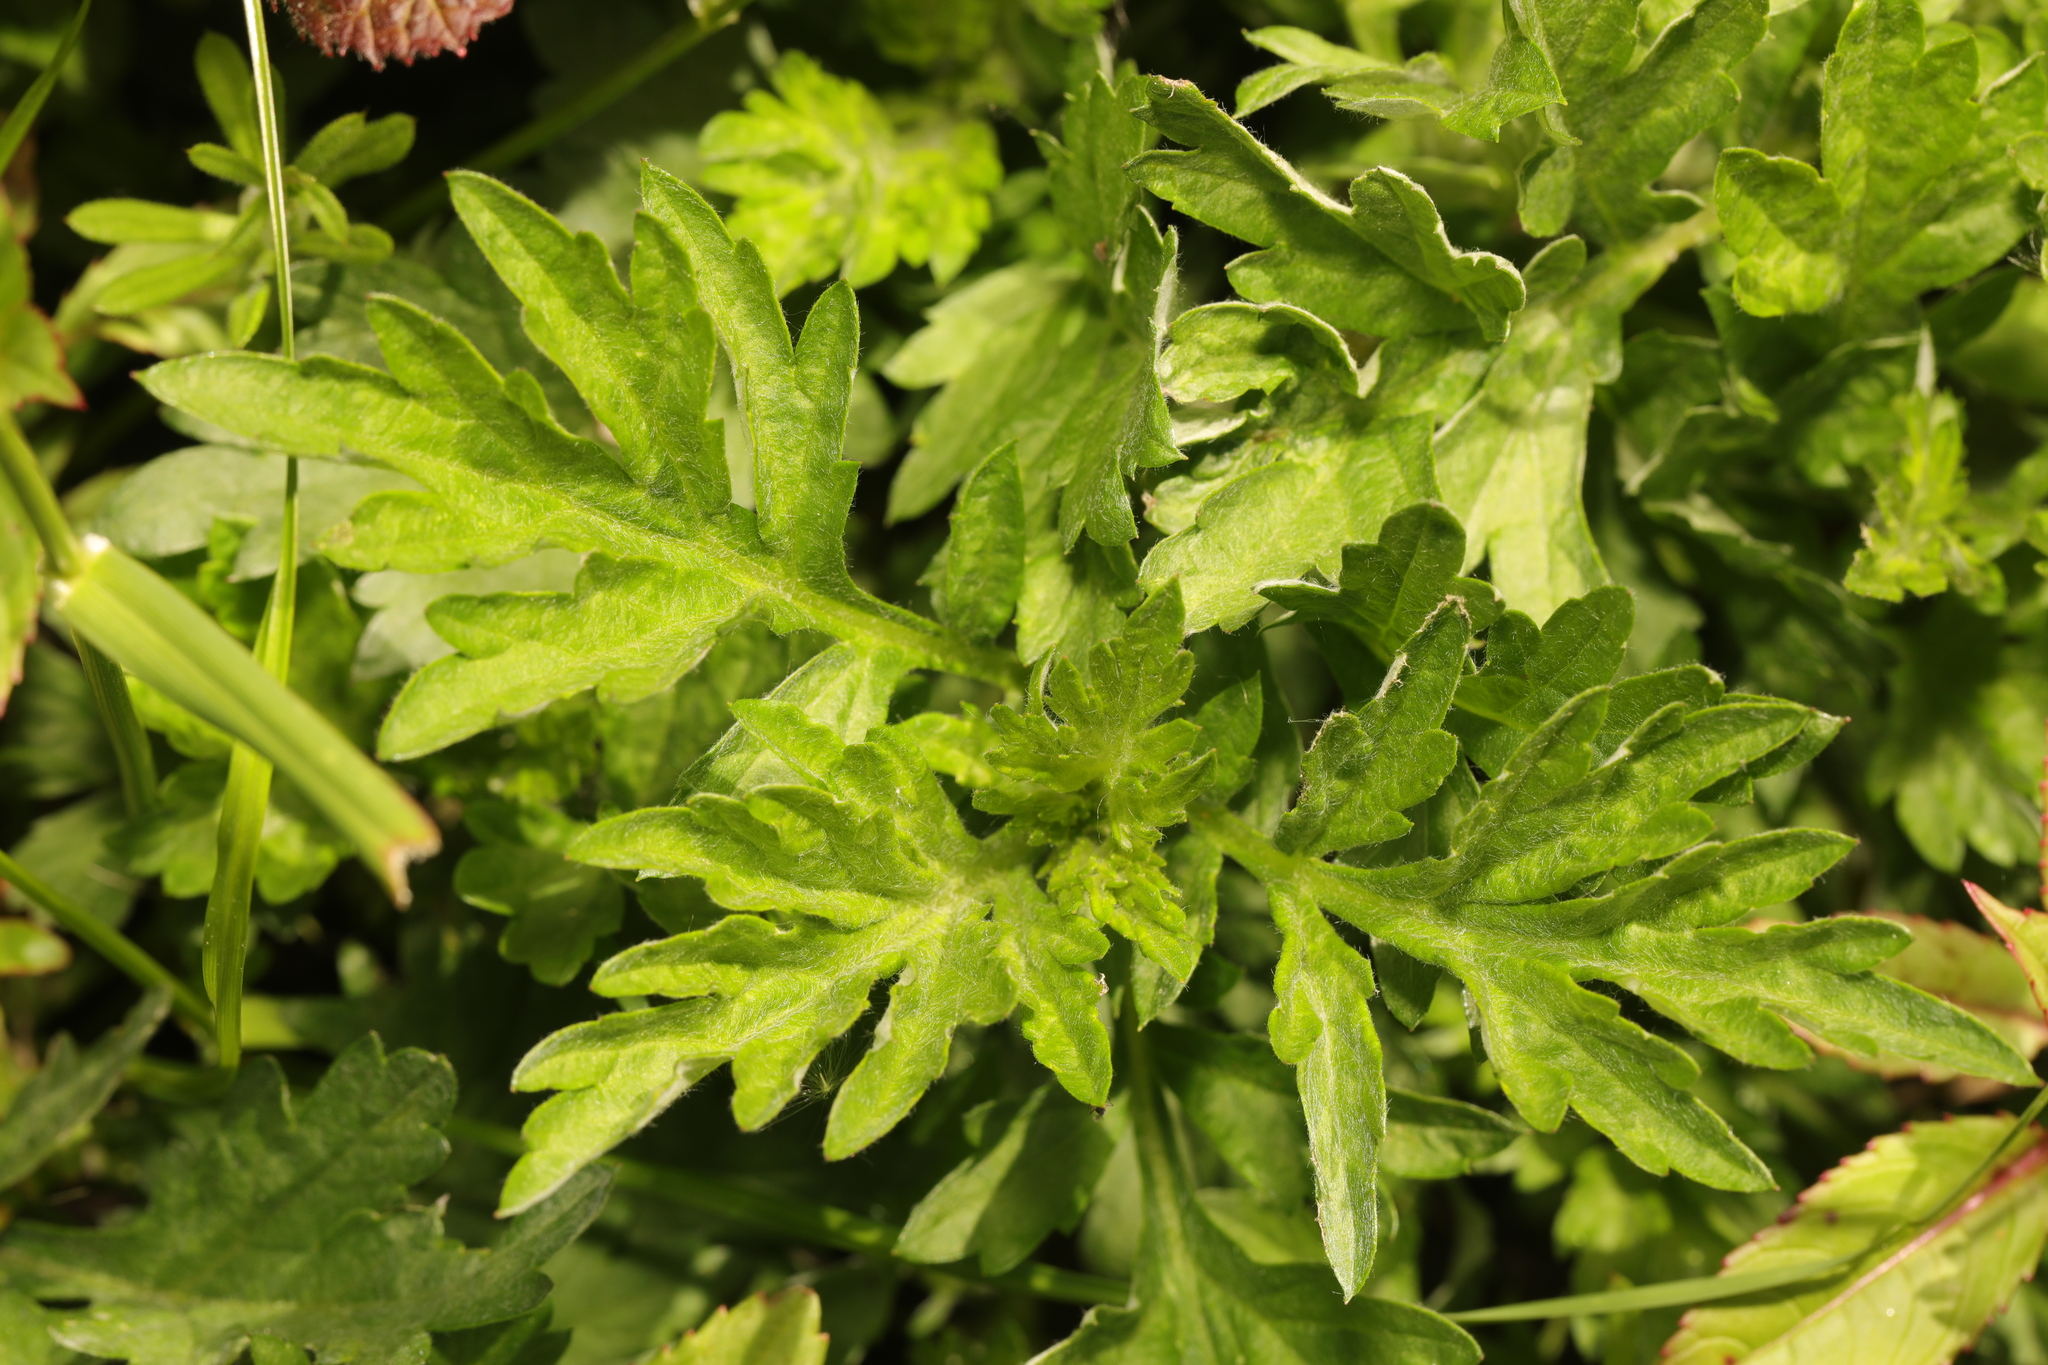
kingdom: Plantae
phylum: Tracheophyta
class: Magnoliopsida
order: Asterales
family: Asteraceae
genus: Artemisia
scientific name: Artemisia vulgaris
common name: Mugwort
